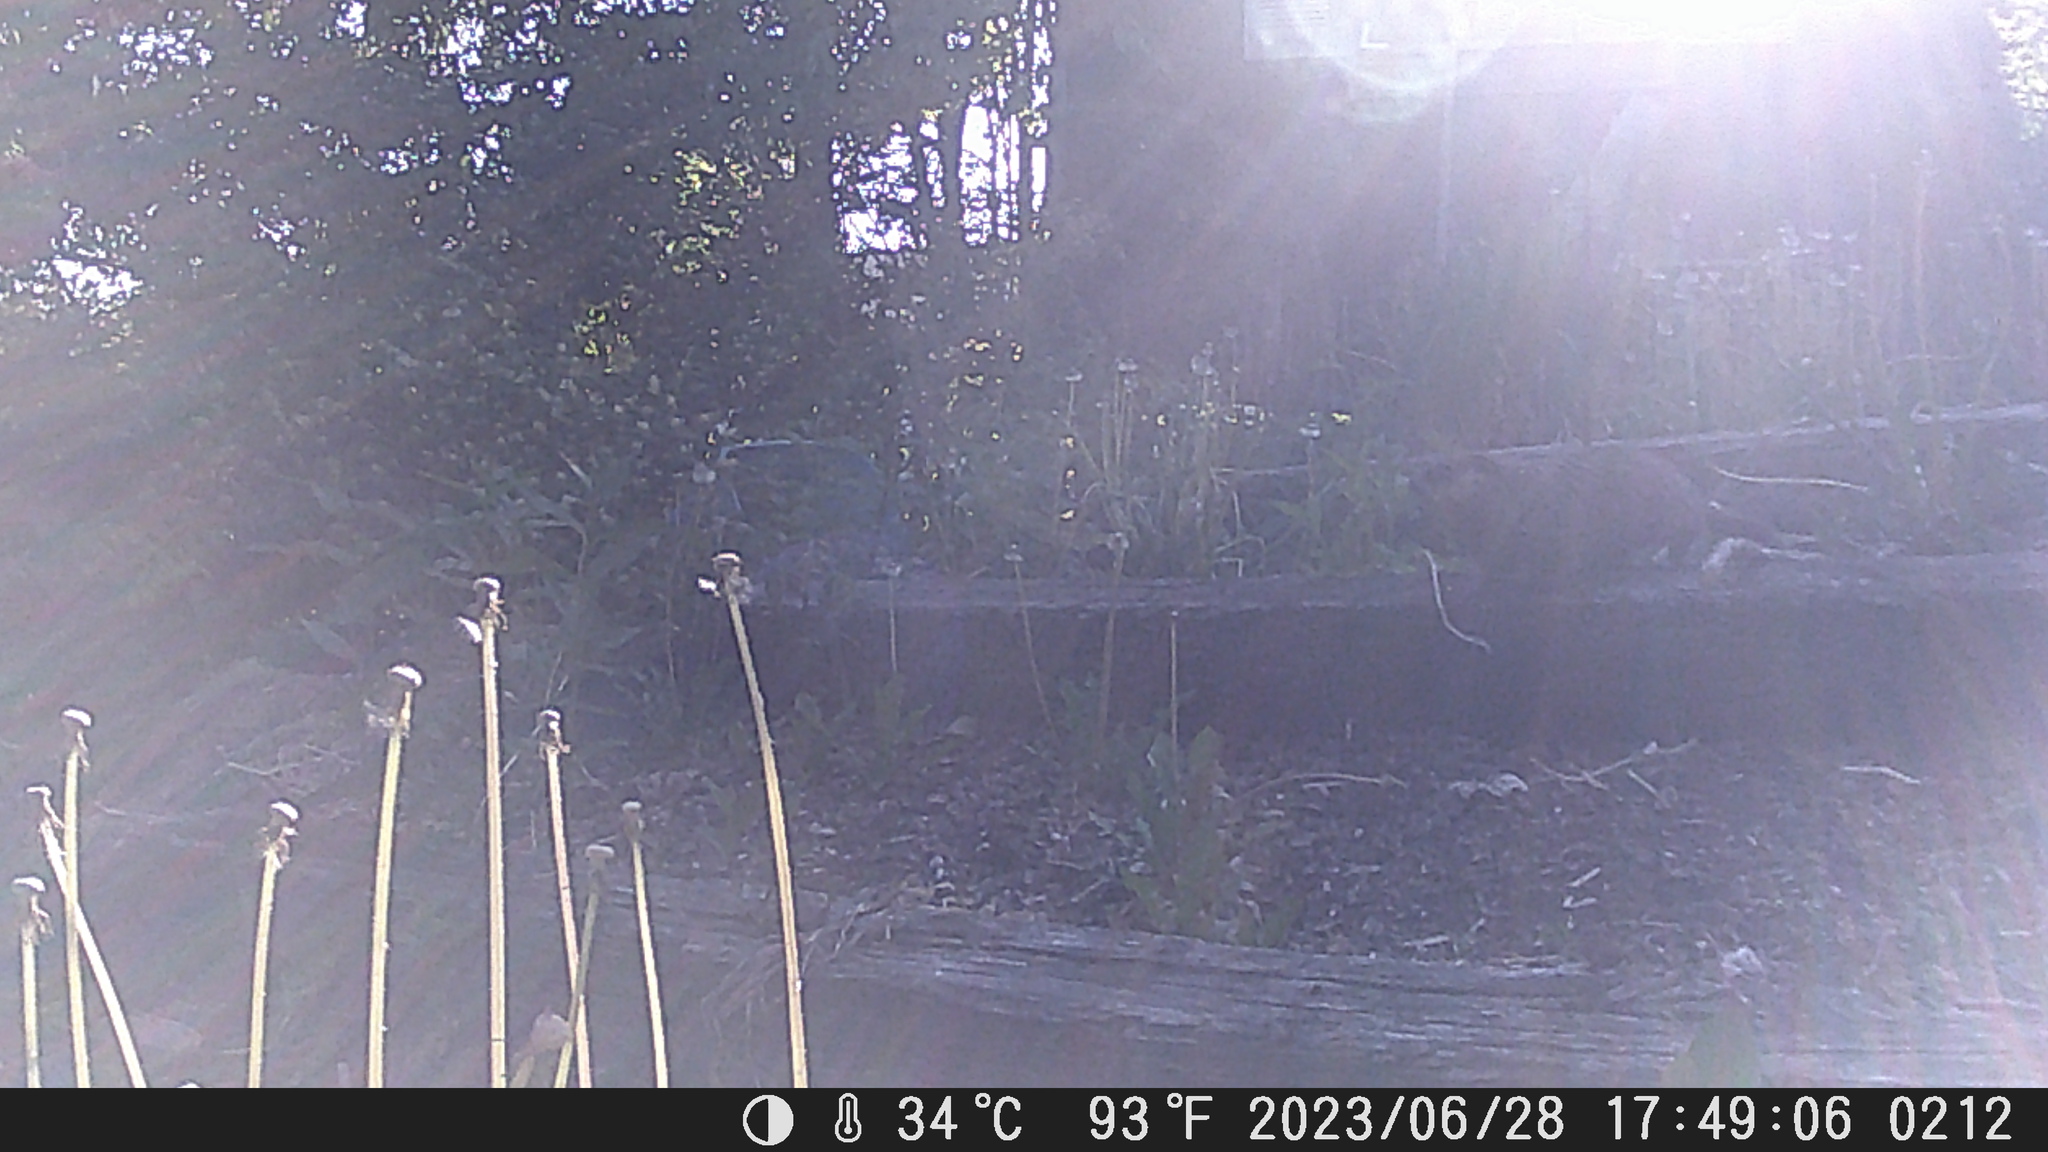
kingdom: Animalia
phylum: Chordata
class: Mammalia
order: Rodentia
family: Sciuridae
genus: Marmota
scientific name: Marmota monax
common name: Groundhog
